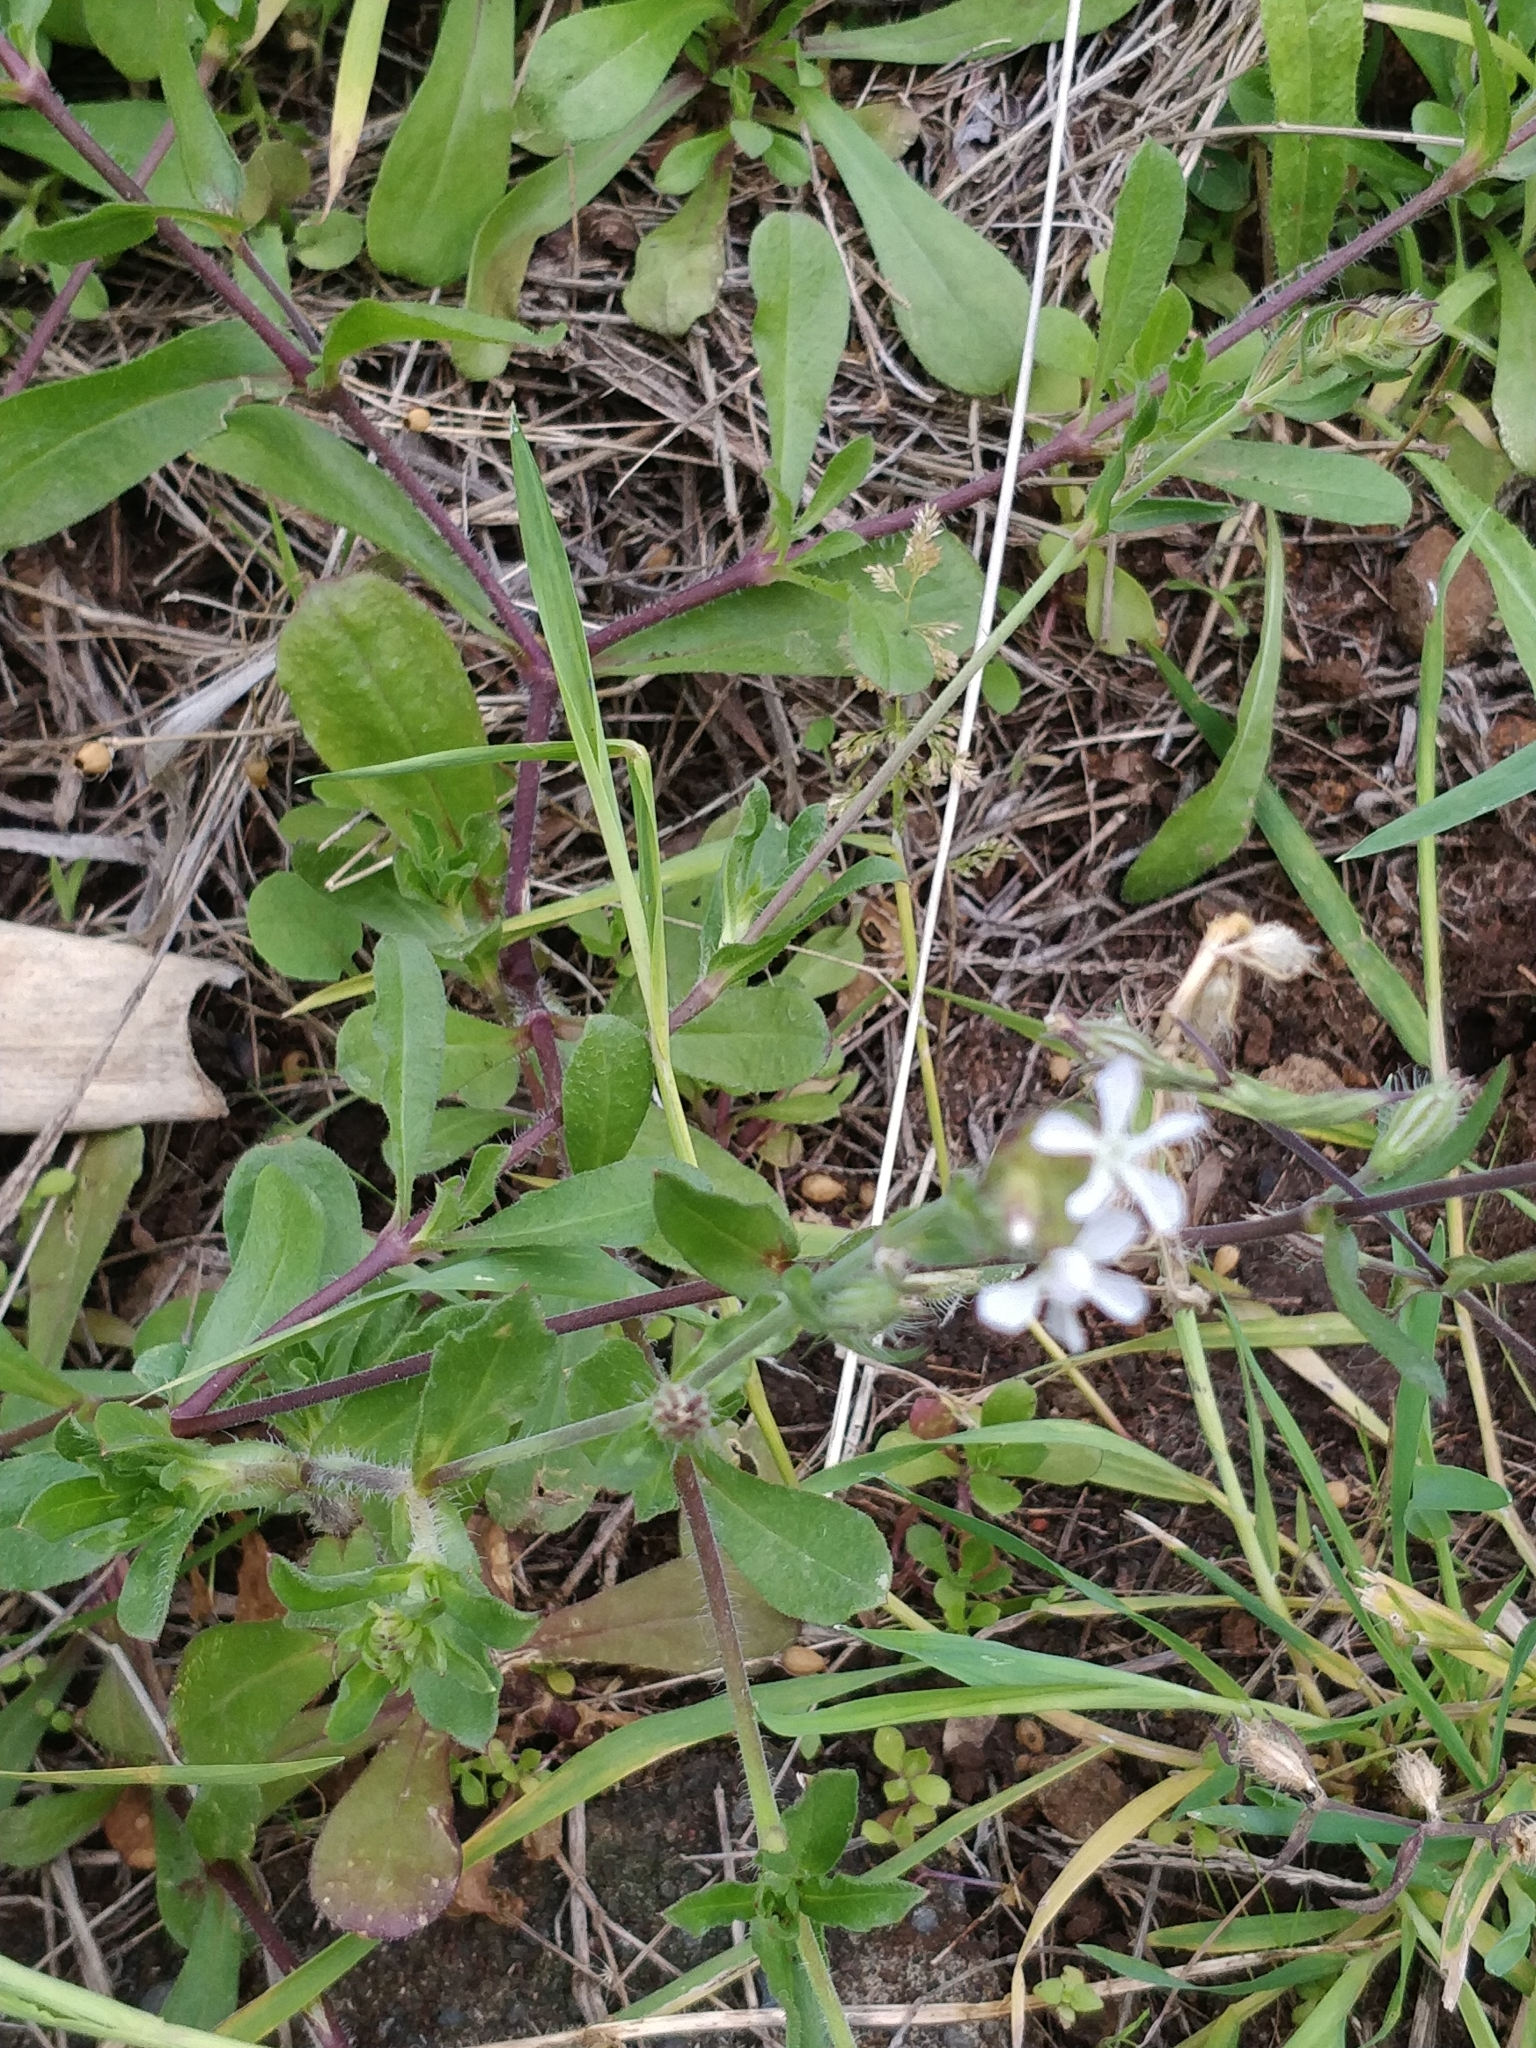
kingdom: Plantae
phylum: Tracheophyta
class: Magnoliopsida
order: Caryophyllales
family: Caryophyllaceae
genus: Silene
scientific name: Silene gallica
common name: Small-flowered catchfly
